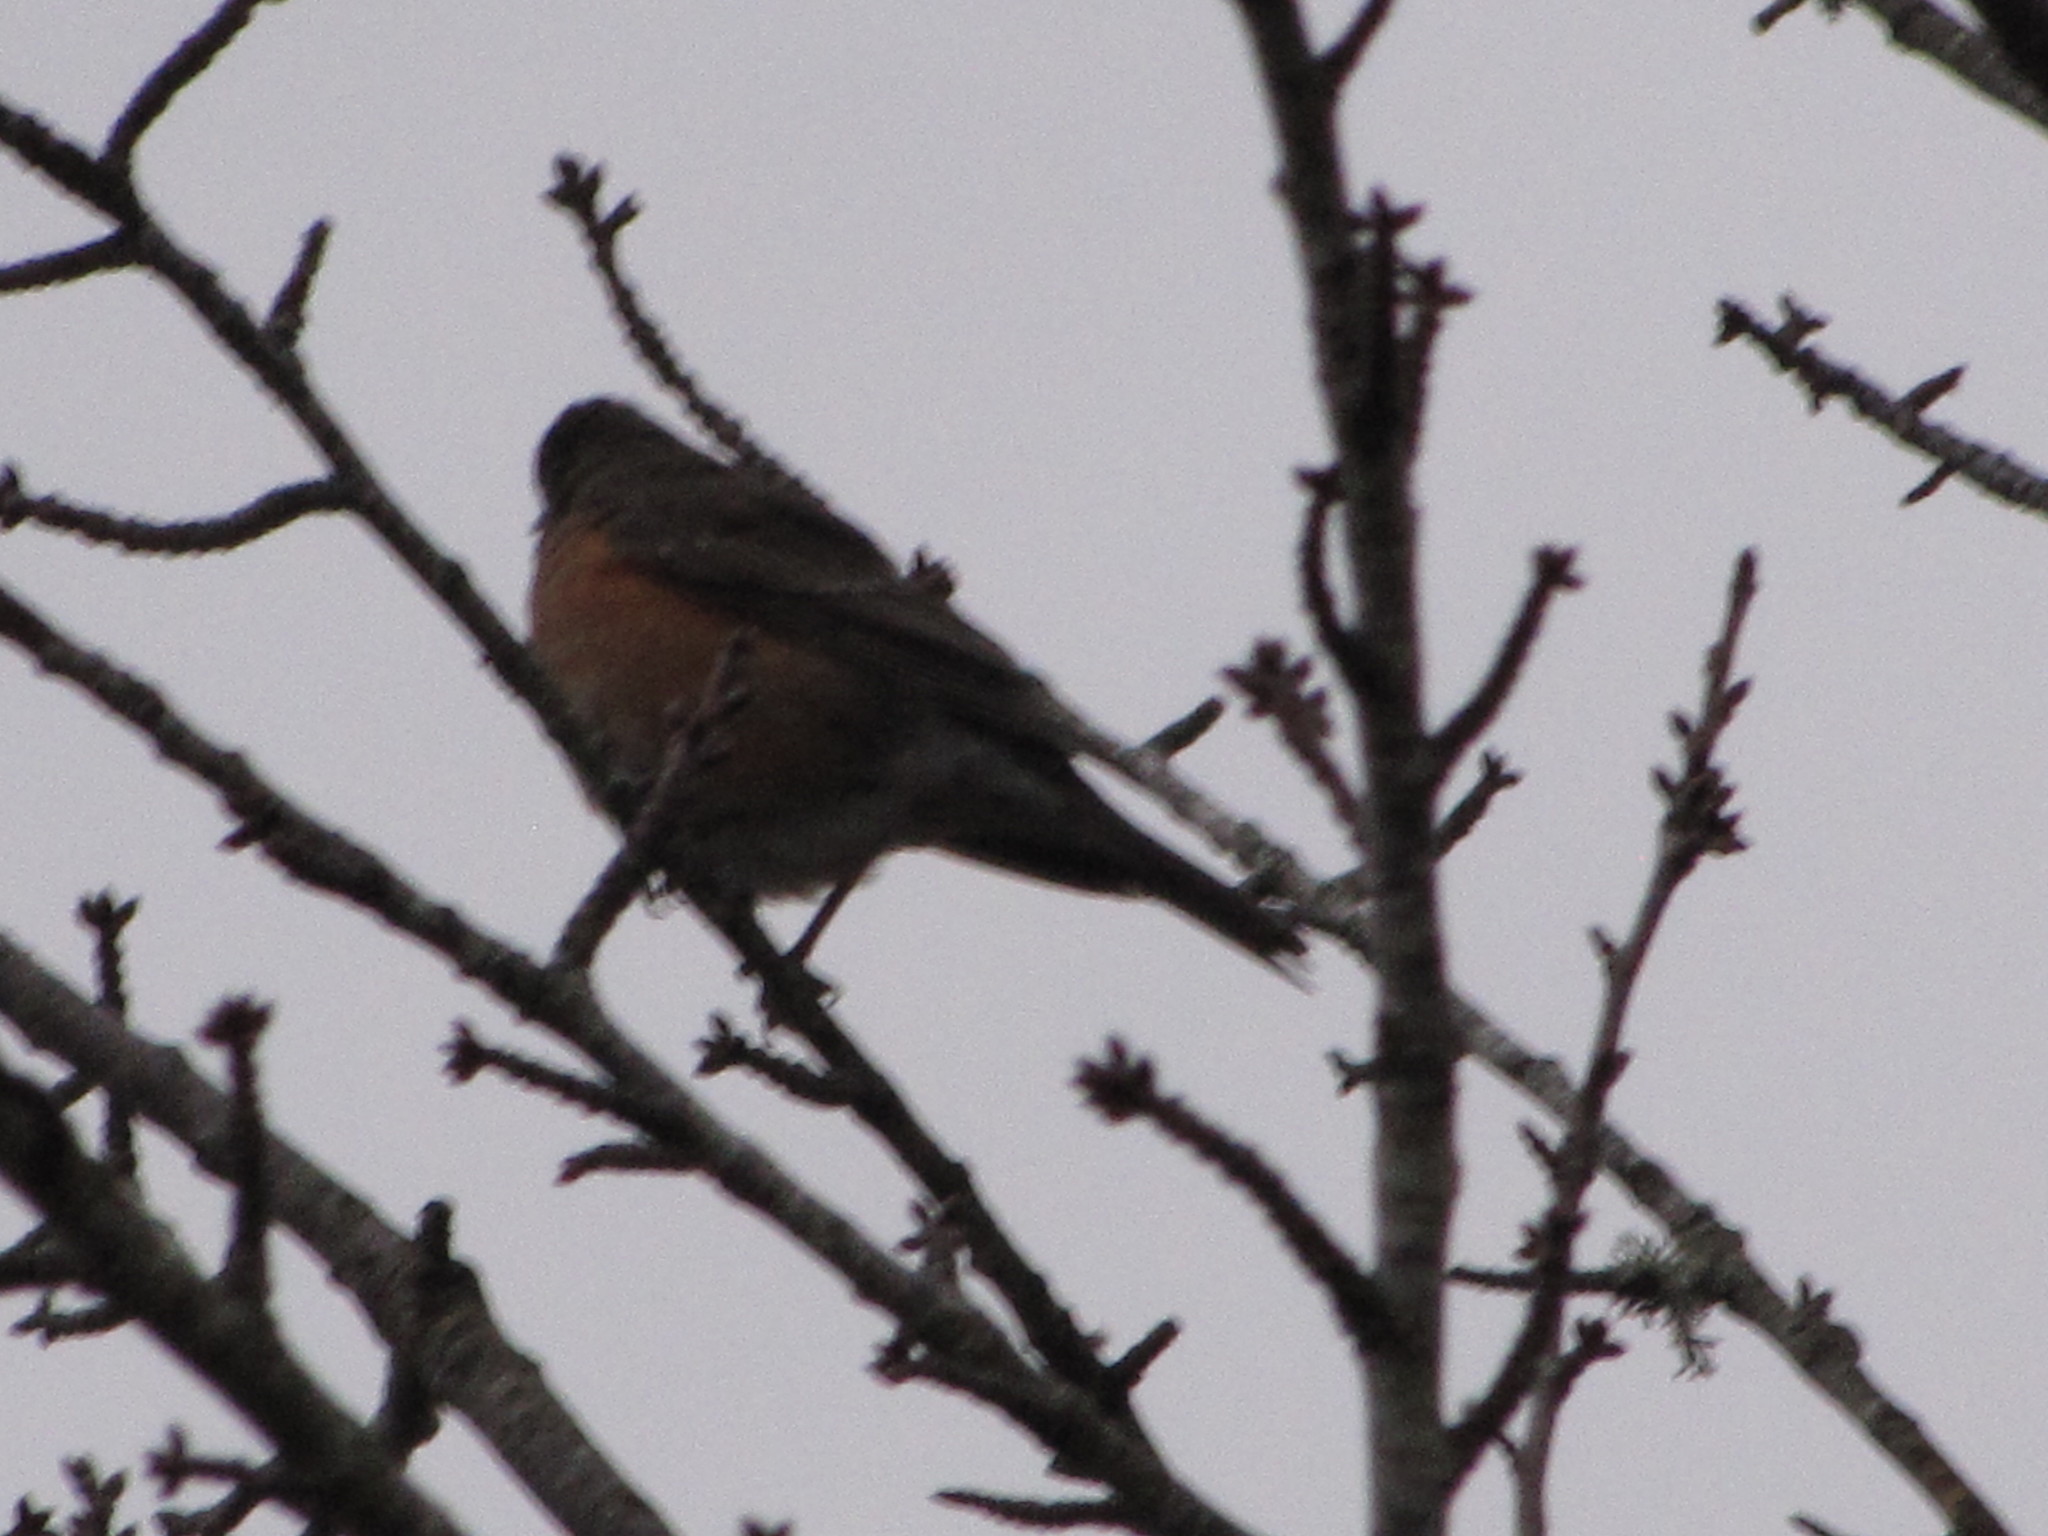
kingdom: Animalia
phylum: Chordata
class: Aves
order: Passeriformes
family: Turdidae
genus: Turdus
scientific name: Turdus migratorius
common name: American robin
